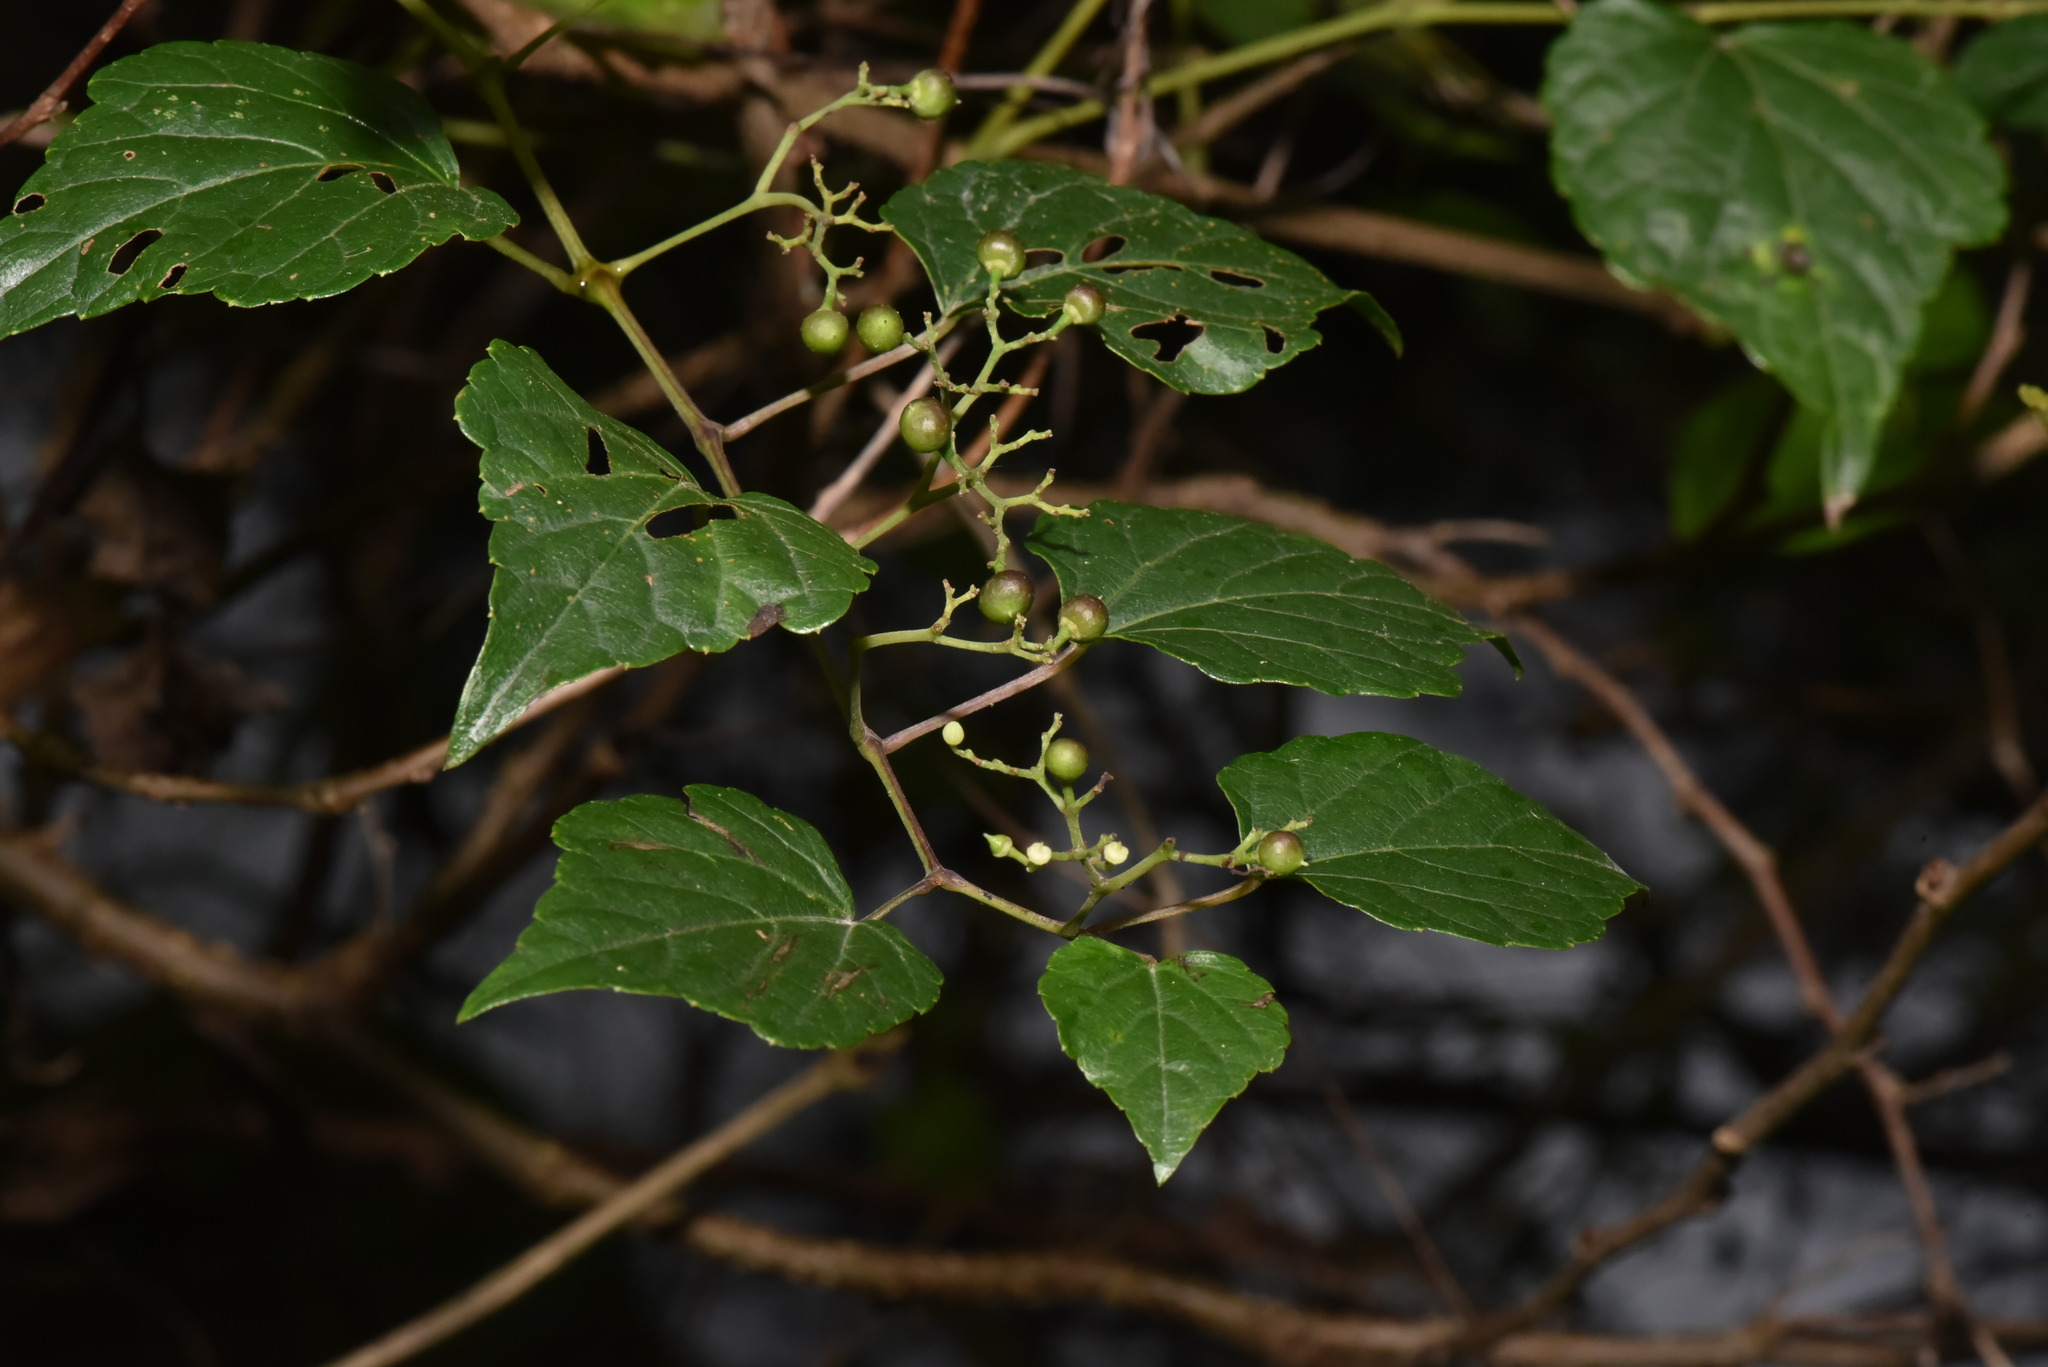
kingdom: Plantae
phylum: Tracheophyta
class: Magnoliopsida
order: Vitales
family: Vitaceae
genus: Ampelopsis
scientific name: Ampelopsis glandulosa
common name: Amur peppervine
